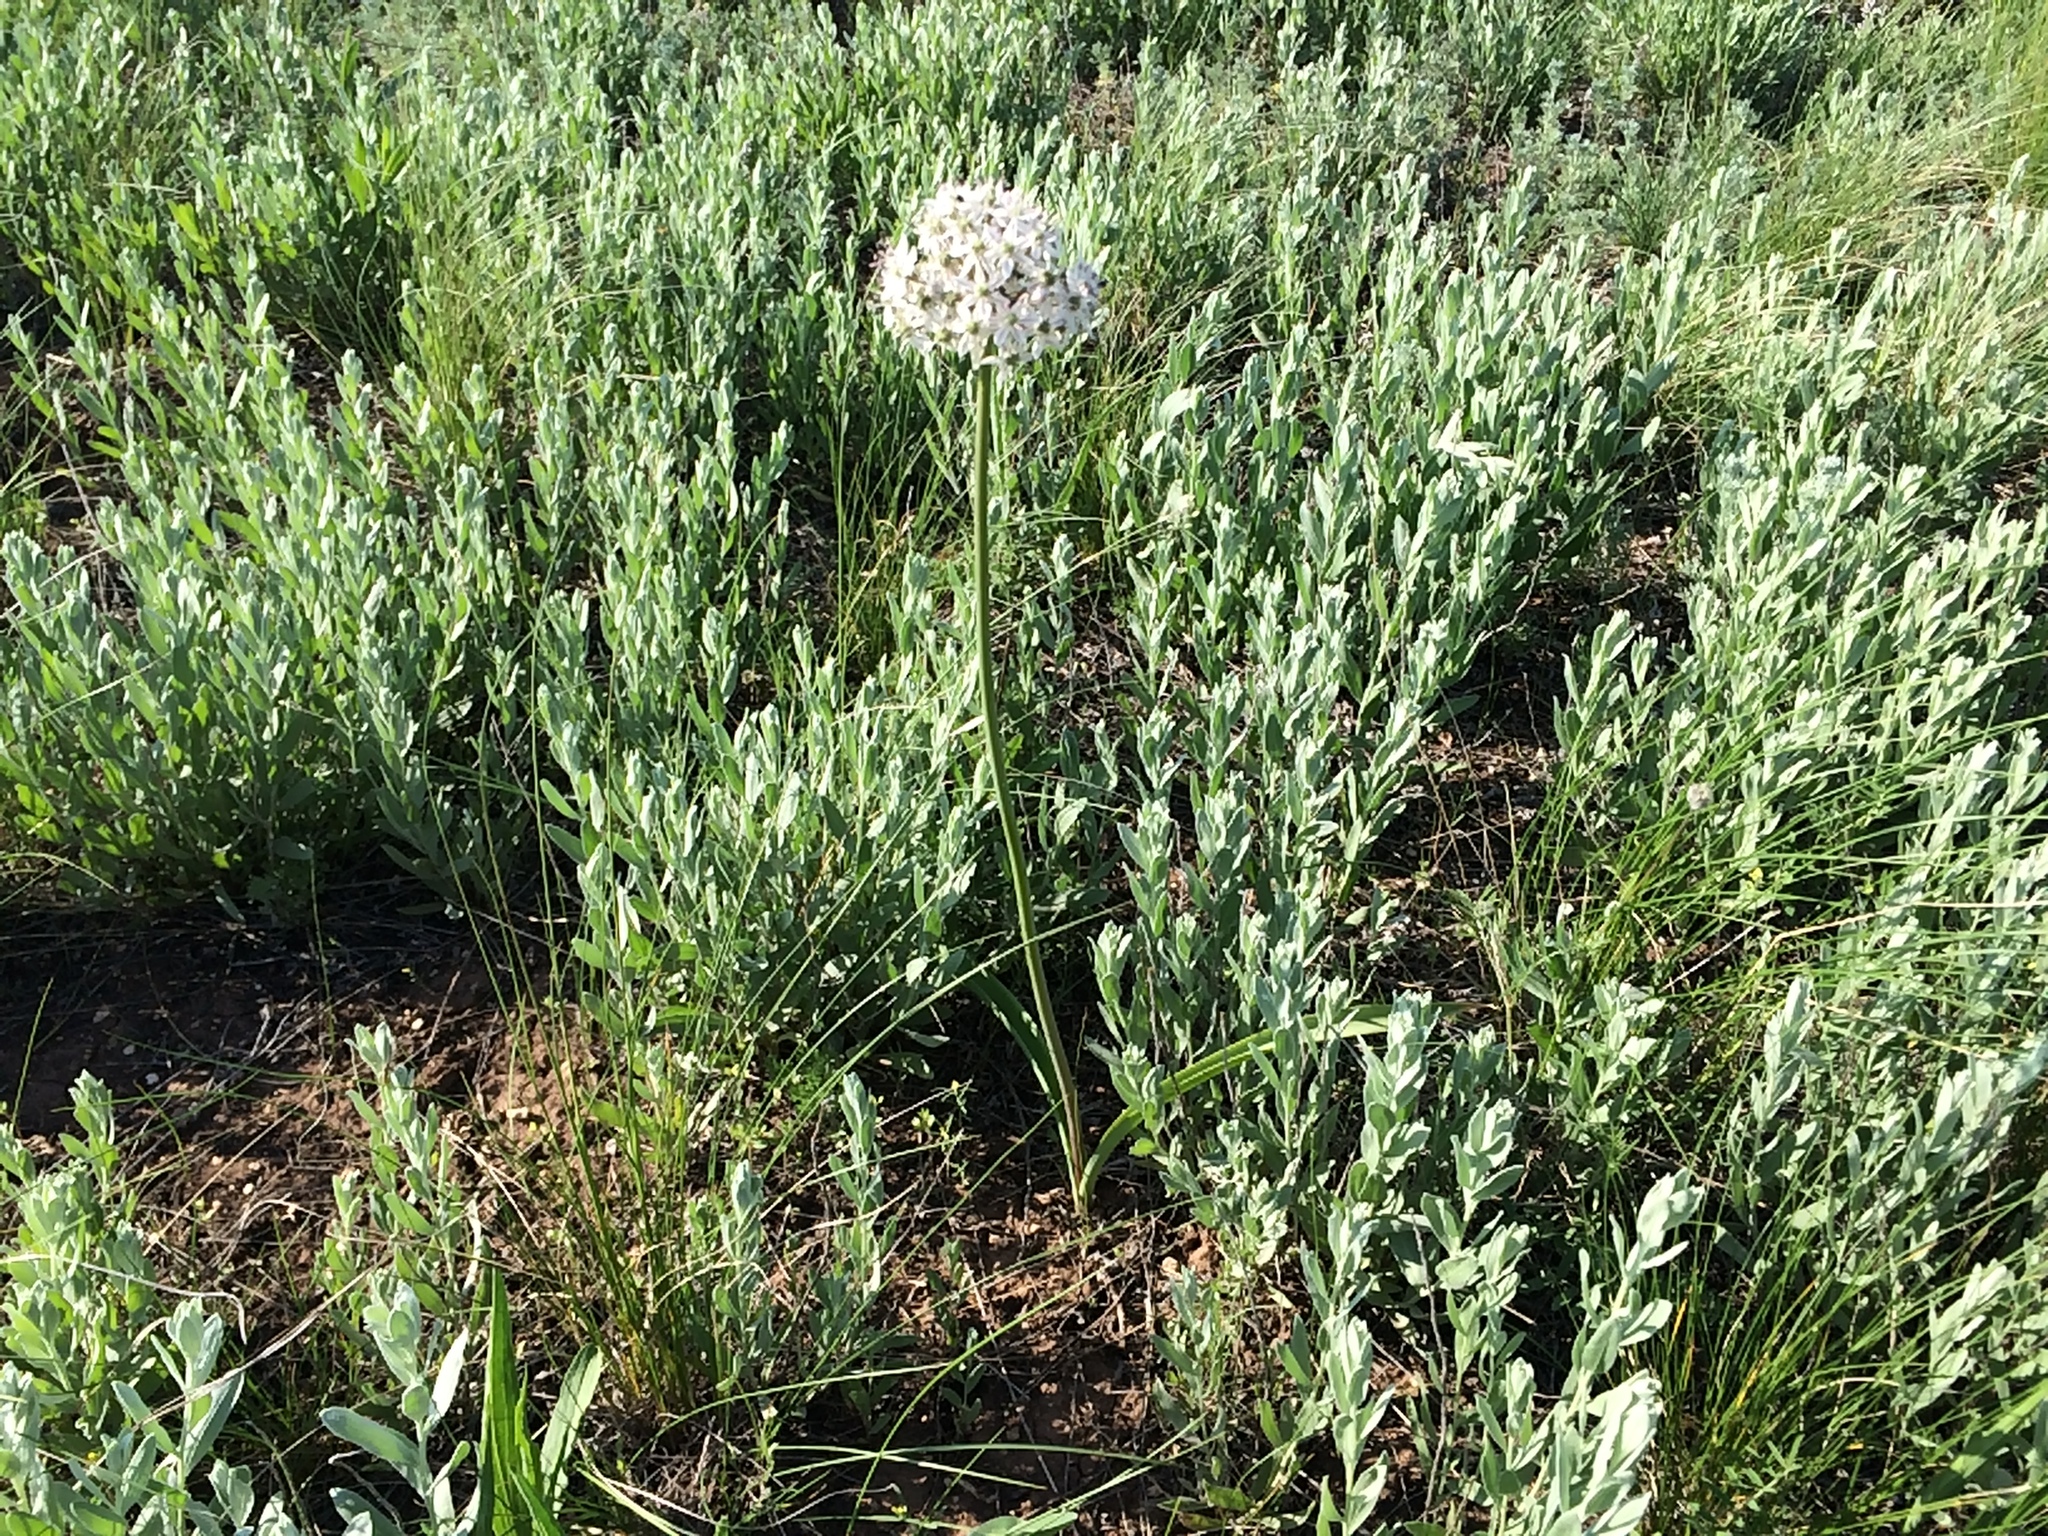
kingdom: Plantae
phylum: Tracheophyta
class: Liliopsida
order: Asparagales
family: Amaryllidaceae
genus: Allium
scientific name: Allium tulipifolium
